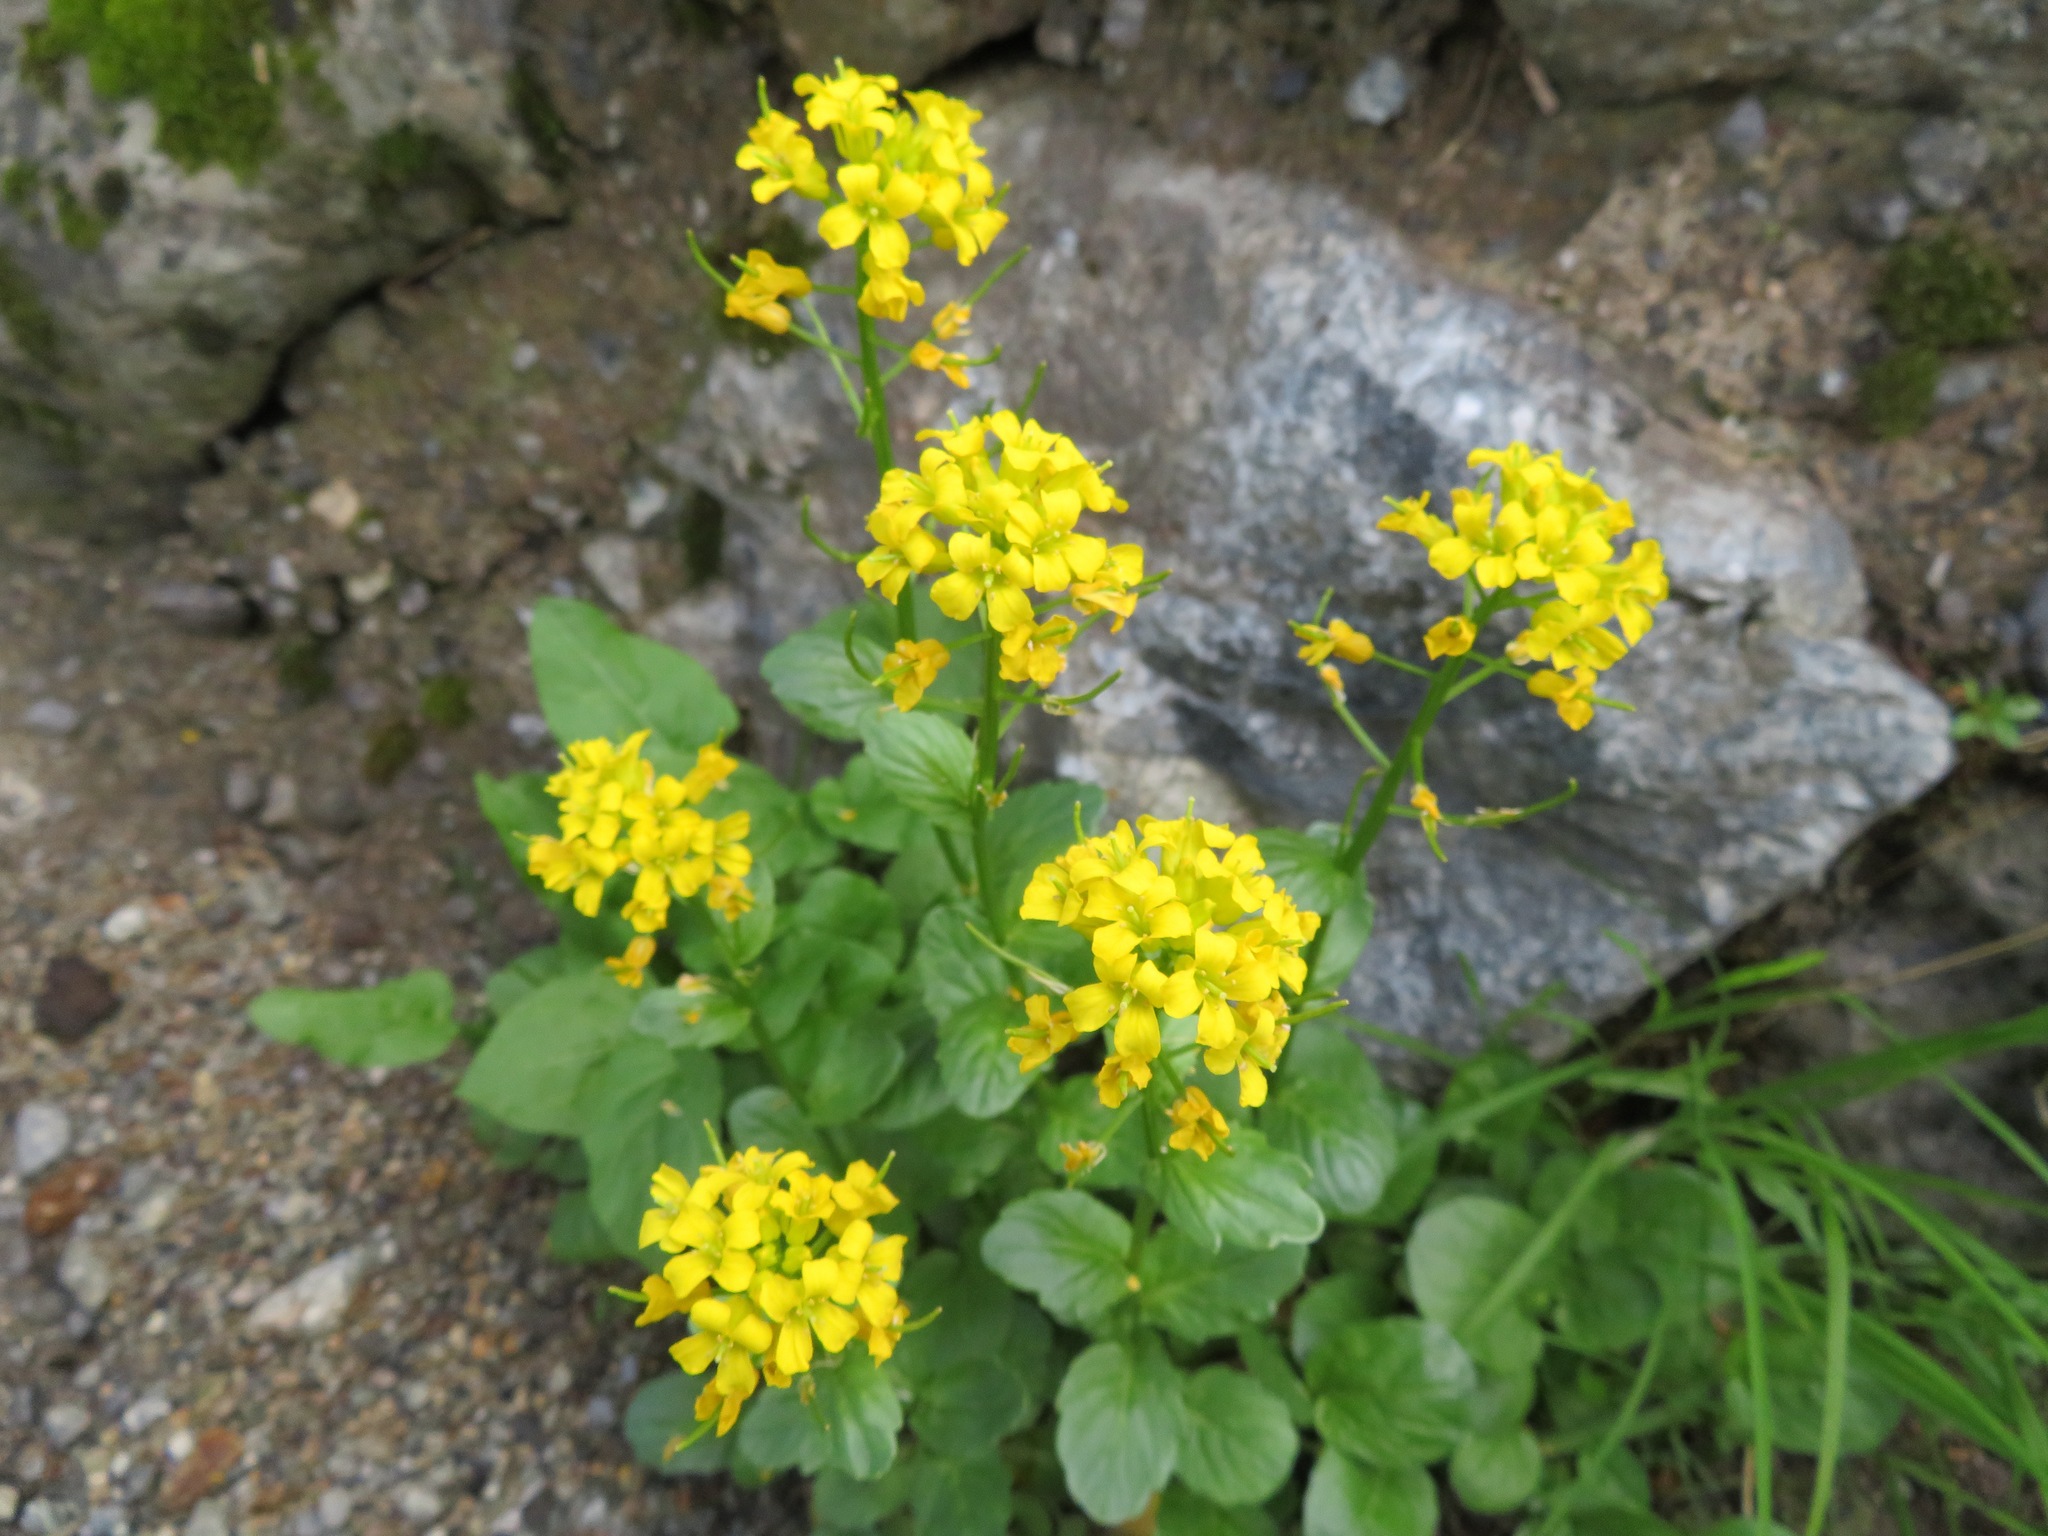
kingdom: Plantae
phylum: Tracheophyta
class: Magnoliopsida
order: Brassicales
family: Brassicaceae
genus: Barbarea
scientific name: Barbarea orthoceras
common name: American wintercress
